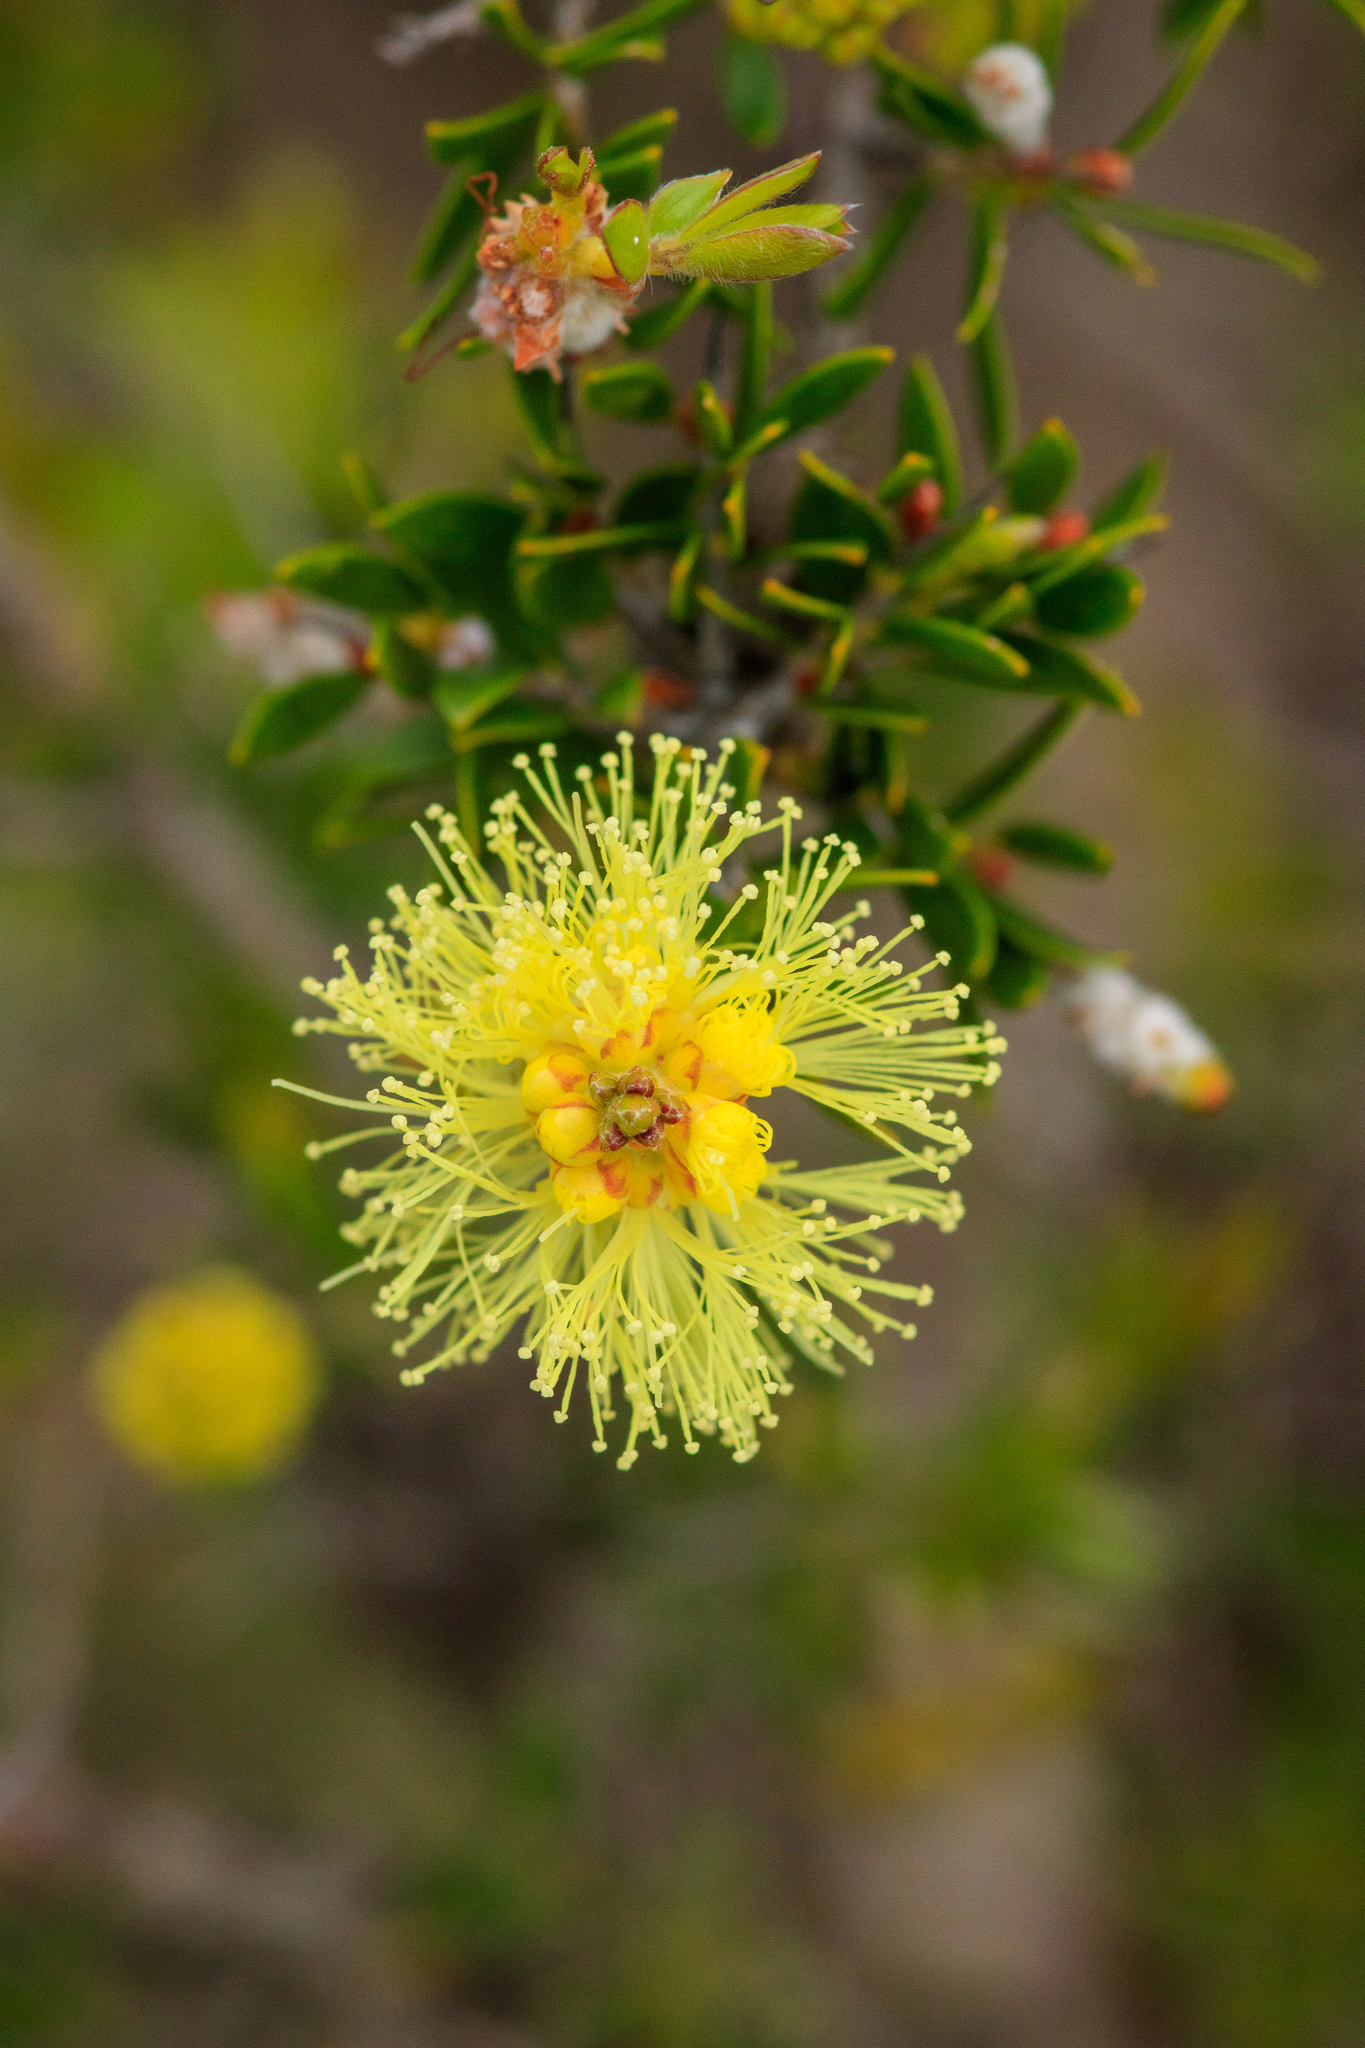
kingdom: Plantae
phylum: Tracheophyta
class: Magnoliopsida
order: Myrtales
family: Myrtaceae
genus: Melaleuca
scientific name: Melaleuca thymoides
